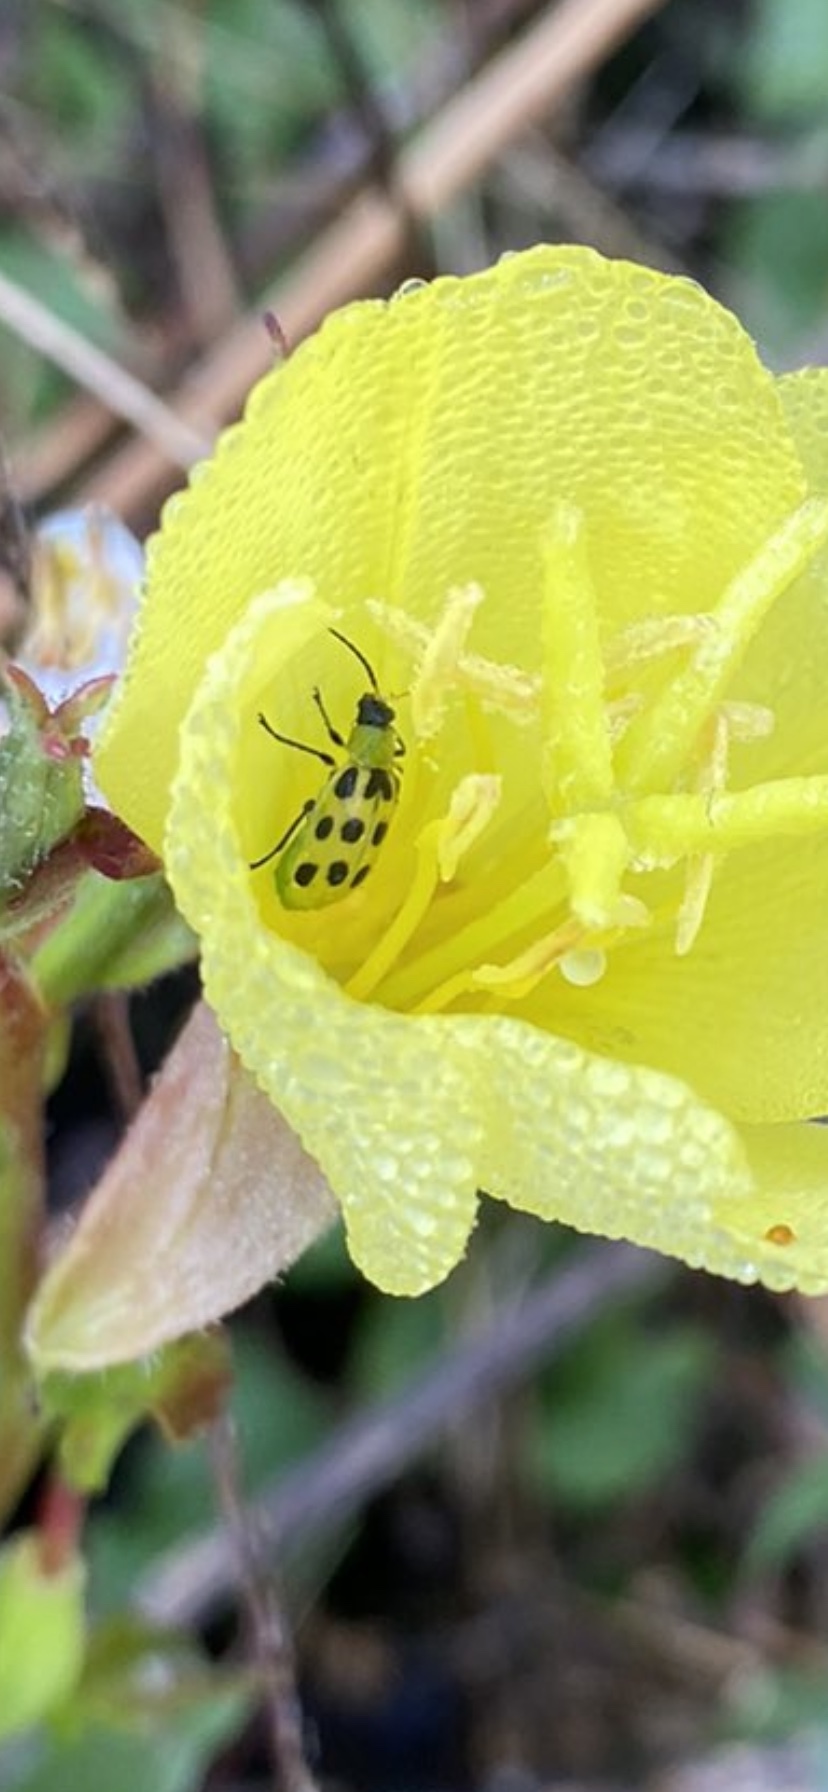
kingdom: Animalia
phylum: Arthropoda
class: Insecta
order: Coleoptera
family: Chrysomelidae
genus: Diabrotica
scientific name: Diabrotica undecimpunctata
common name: Spotted cucumber beetle
